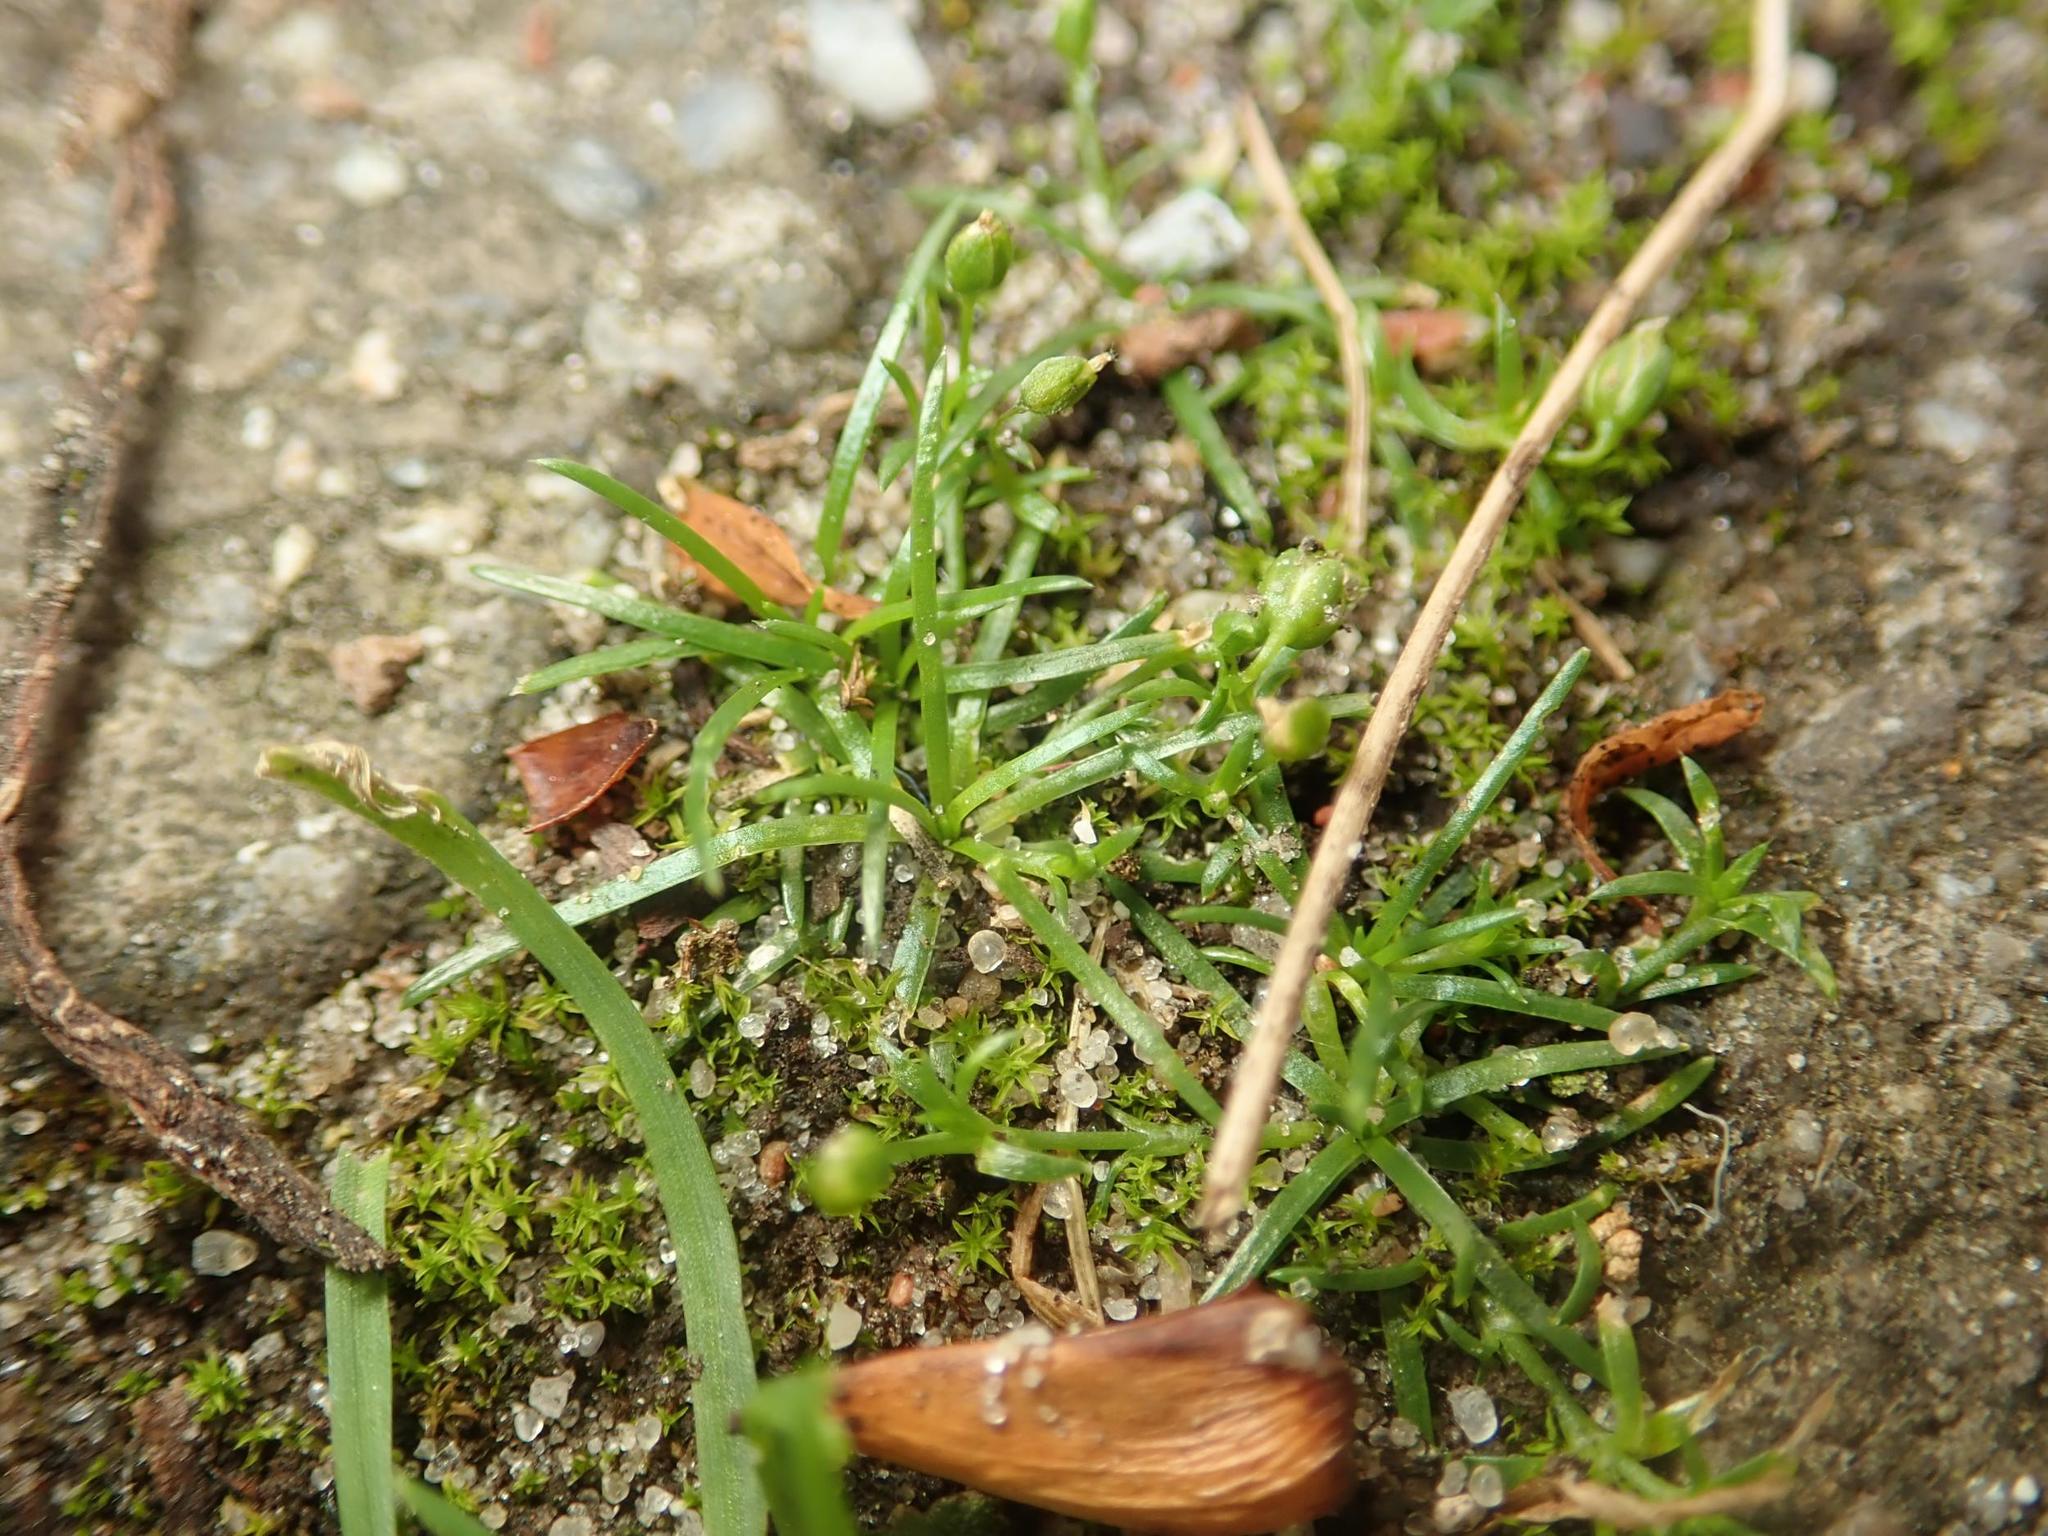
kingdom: Plantae
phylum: Tracheophyta
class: Magnoliopsida
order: Caryophyllales
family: Caryophyllaceae
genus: Sagina
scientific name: Sagina procumbens
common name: Procumbent pearlwort
